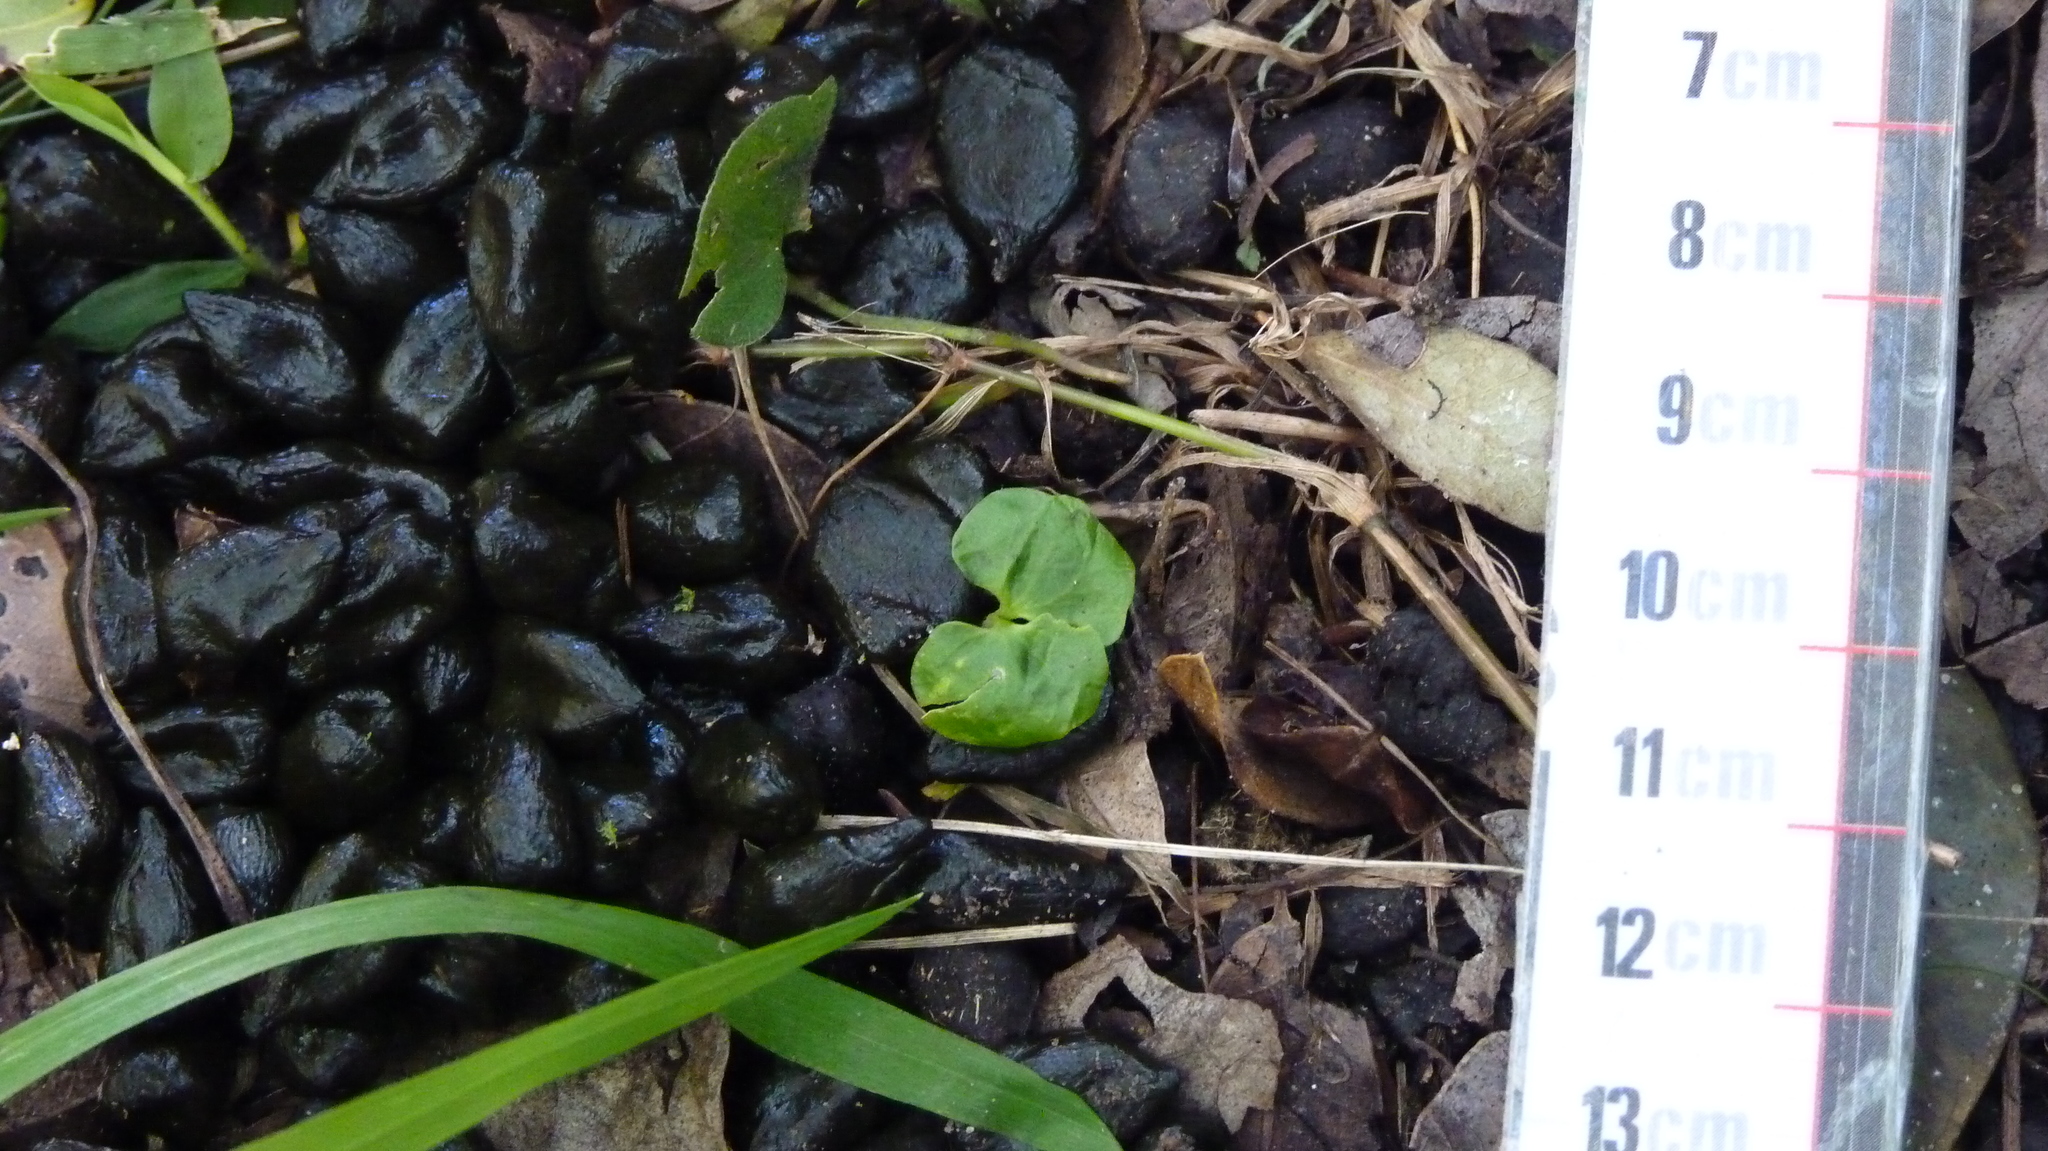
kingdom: Animalia
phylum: Chordata
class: Mammalia
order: Artiodactyla
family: Cervidae
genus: Mazama
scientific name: Mazama gouazoubira
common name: Gray brocket
